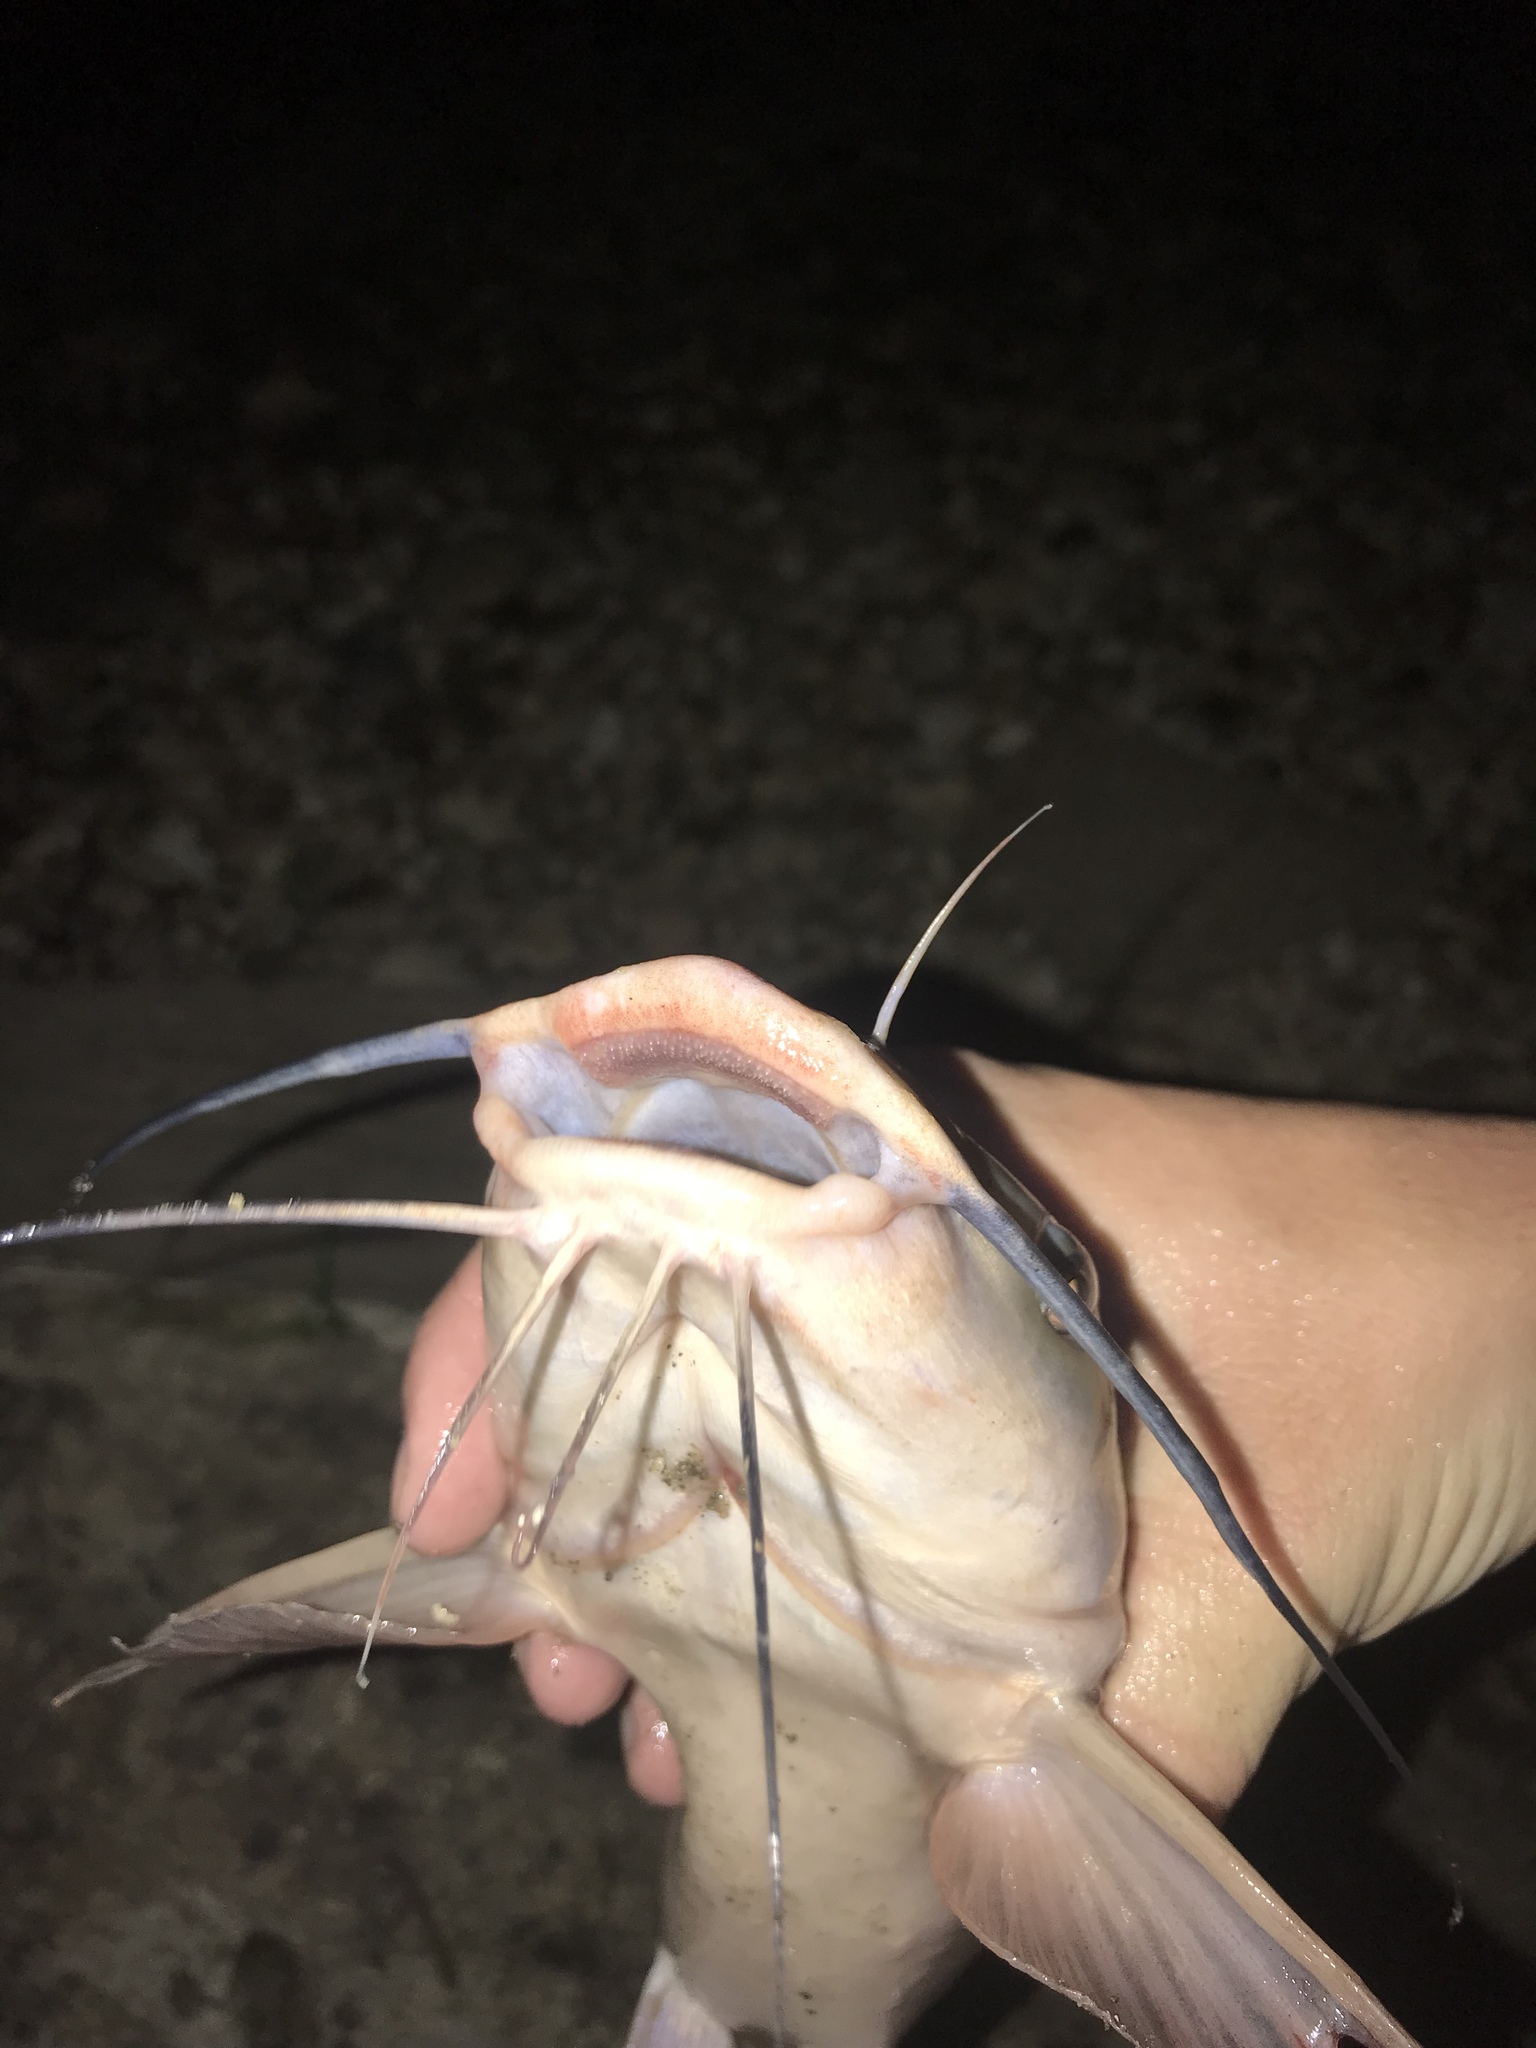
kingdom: Animalia
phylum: Chordata
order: Siluriformes
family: Ictaluridae
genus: Ictalurus
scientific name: Ictalurus punctatus
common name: Channel catfish
